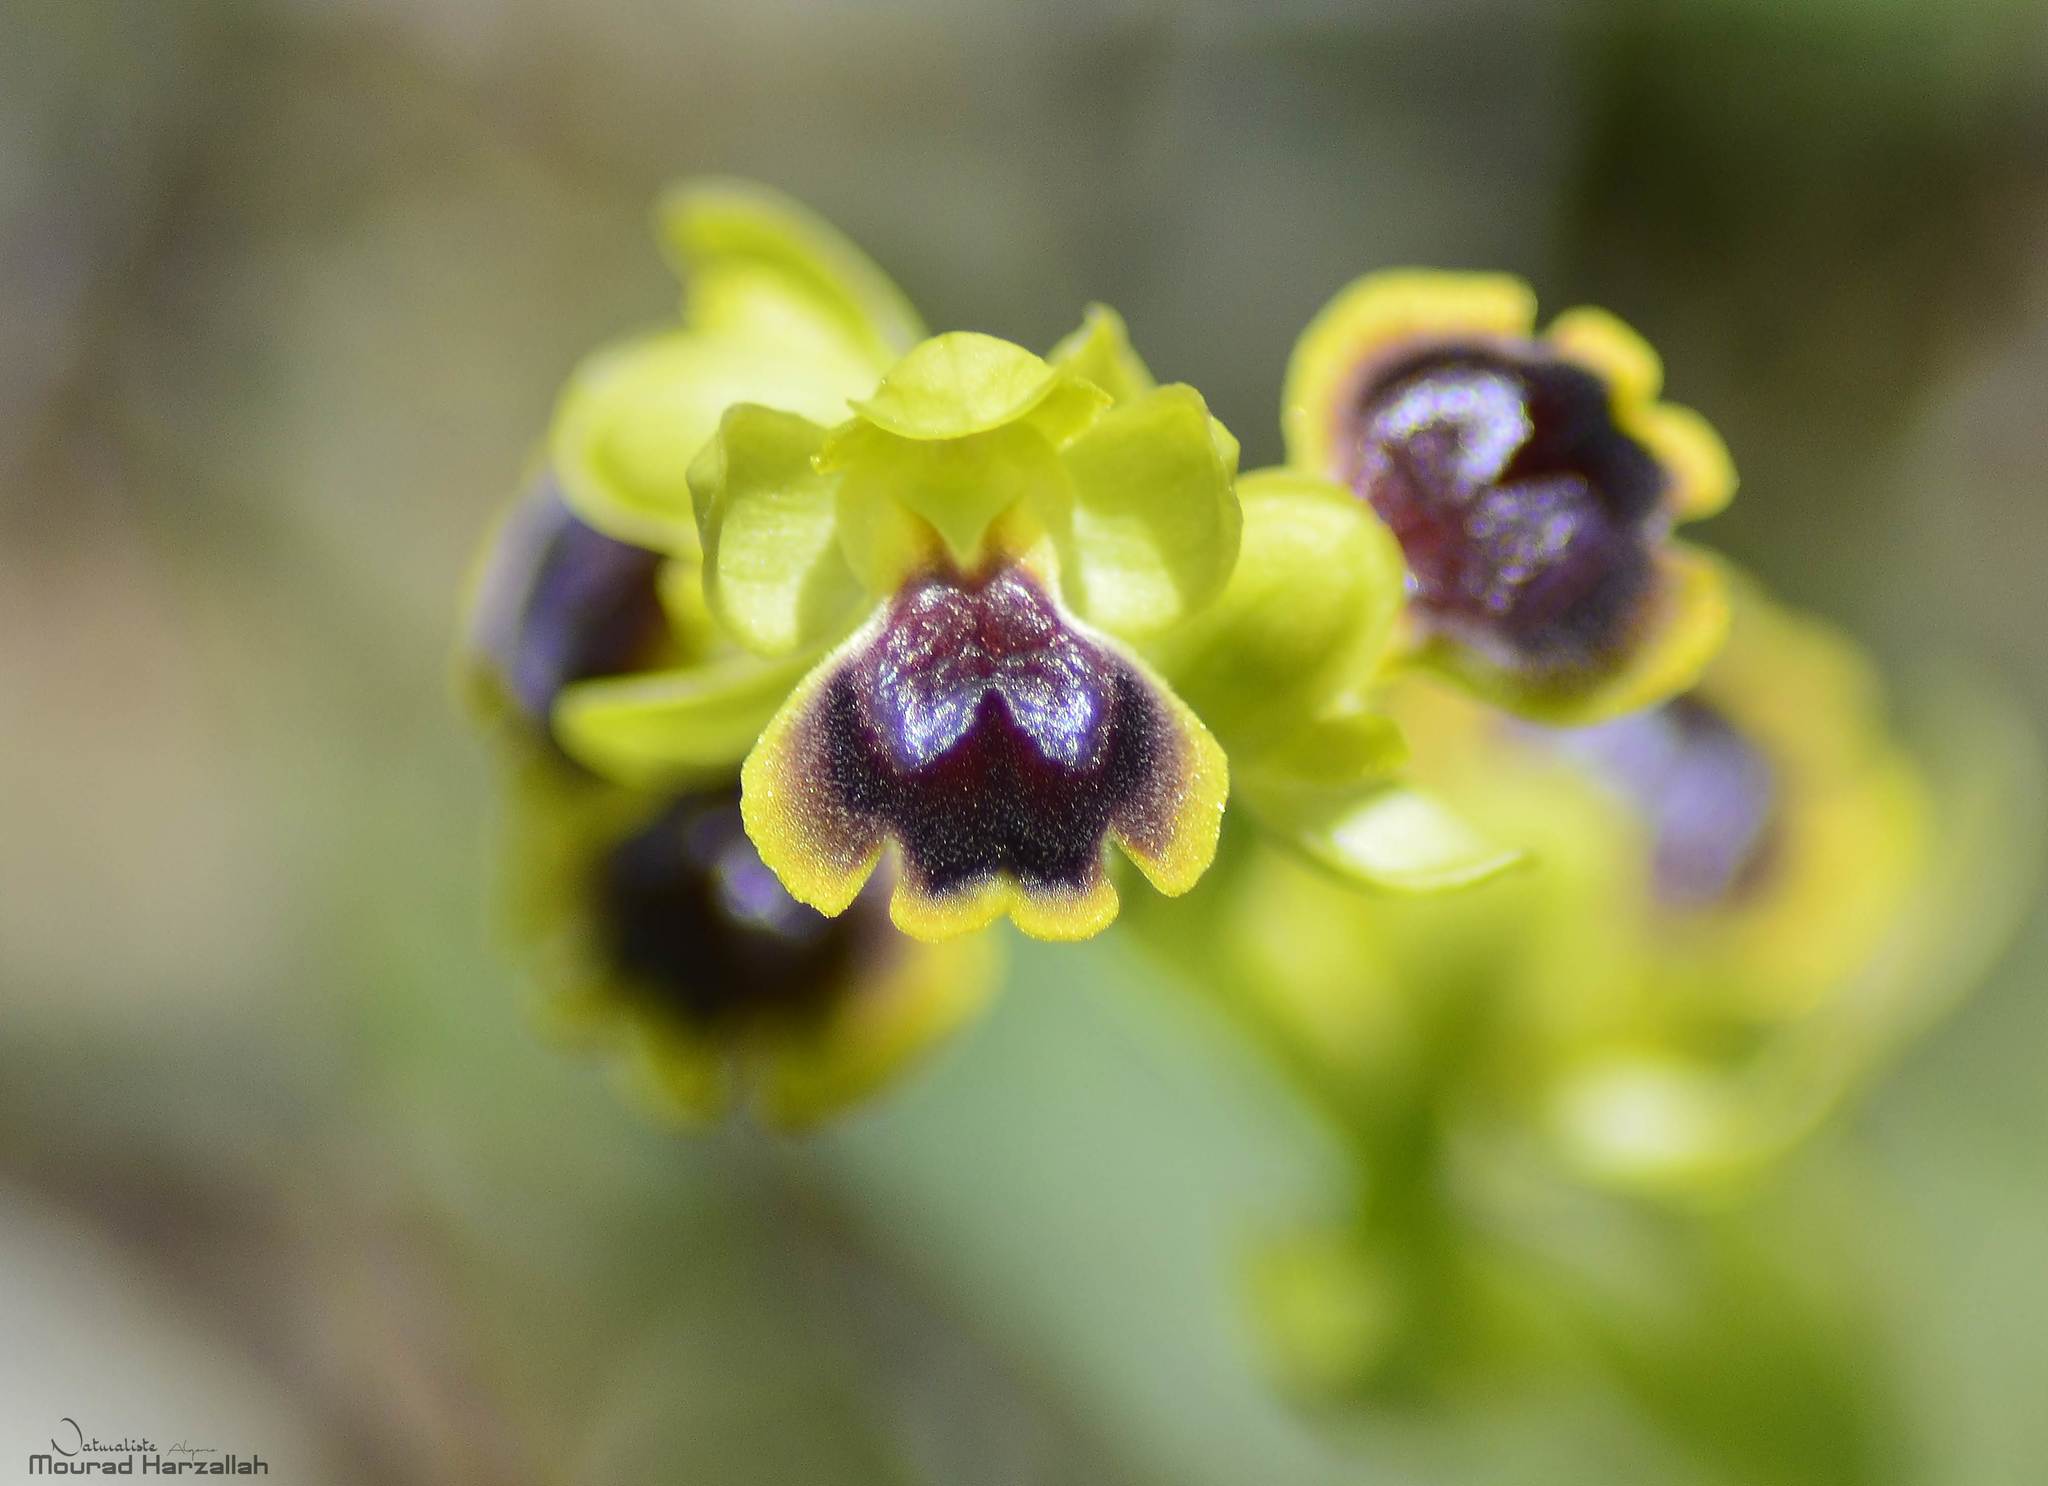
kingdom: Plantae
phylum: Tracheophyta
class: Liliopsida
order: Asparagales
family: Orchidaceae
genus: Ophrys
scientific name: Ophrys battandieri
